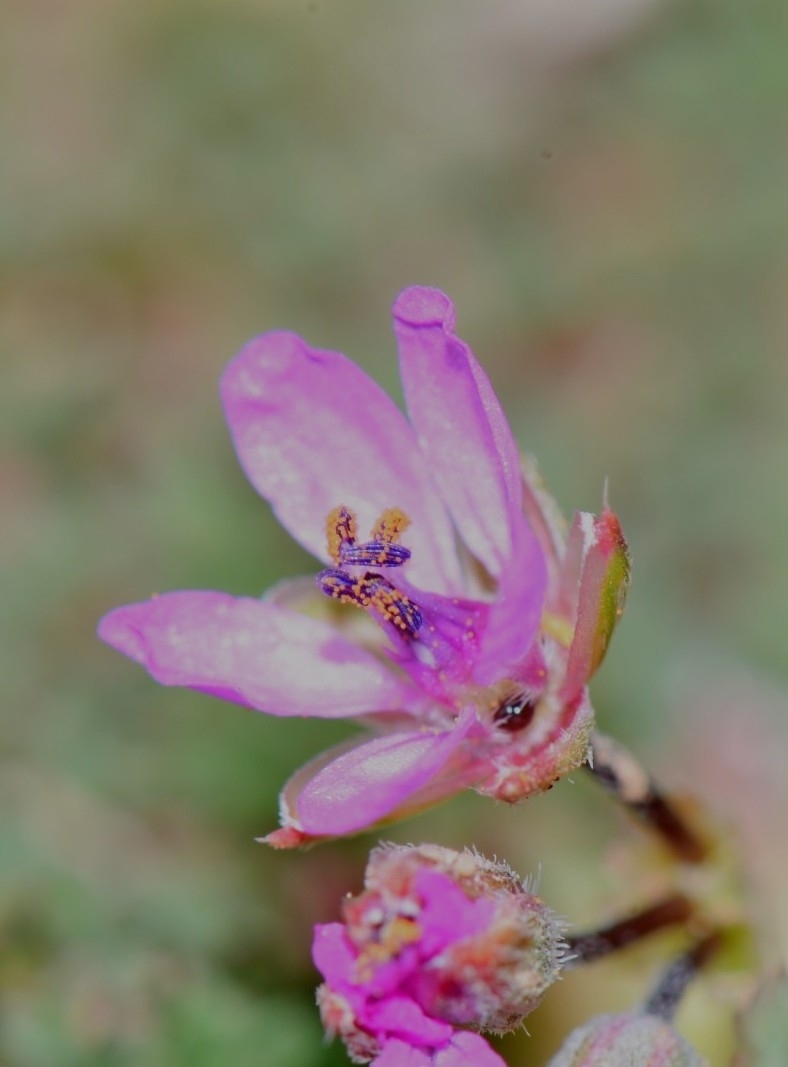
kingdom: Plantae
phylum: Tracheophyta
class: Magnoliopsida
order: Geraniales
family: Geraniaceae
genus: Erodium
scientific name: Erodium cicutarium
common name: Common stork's-bill
